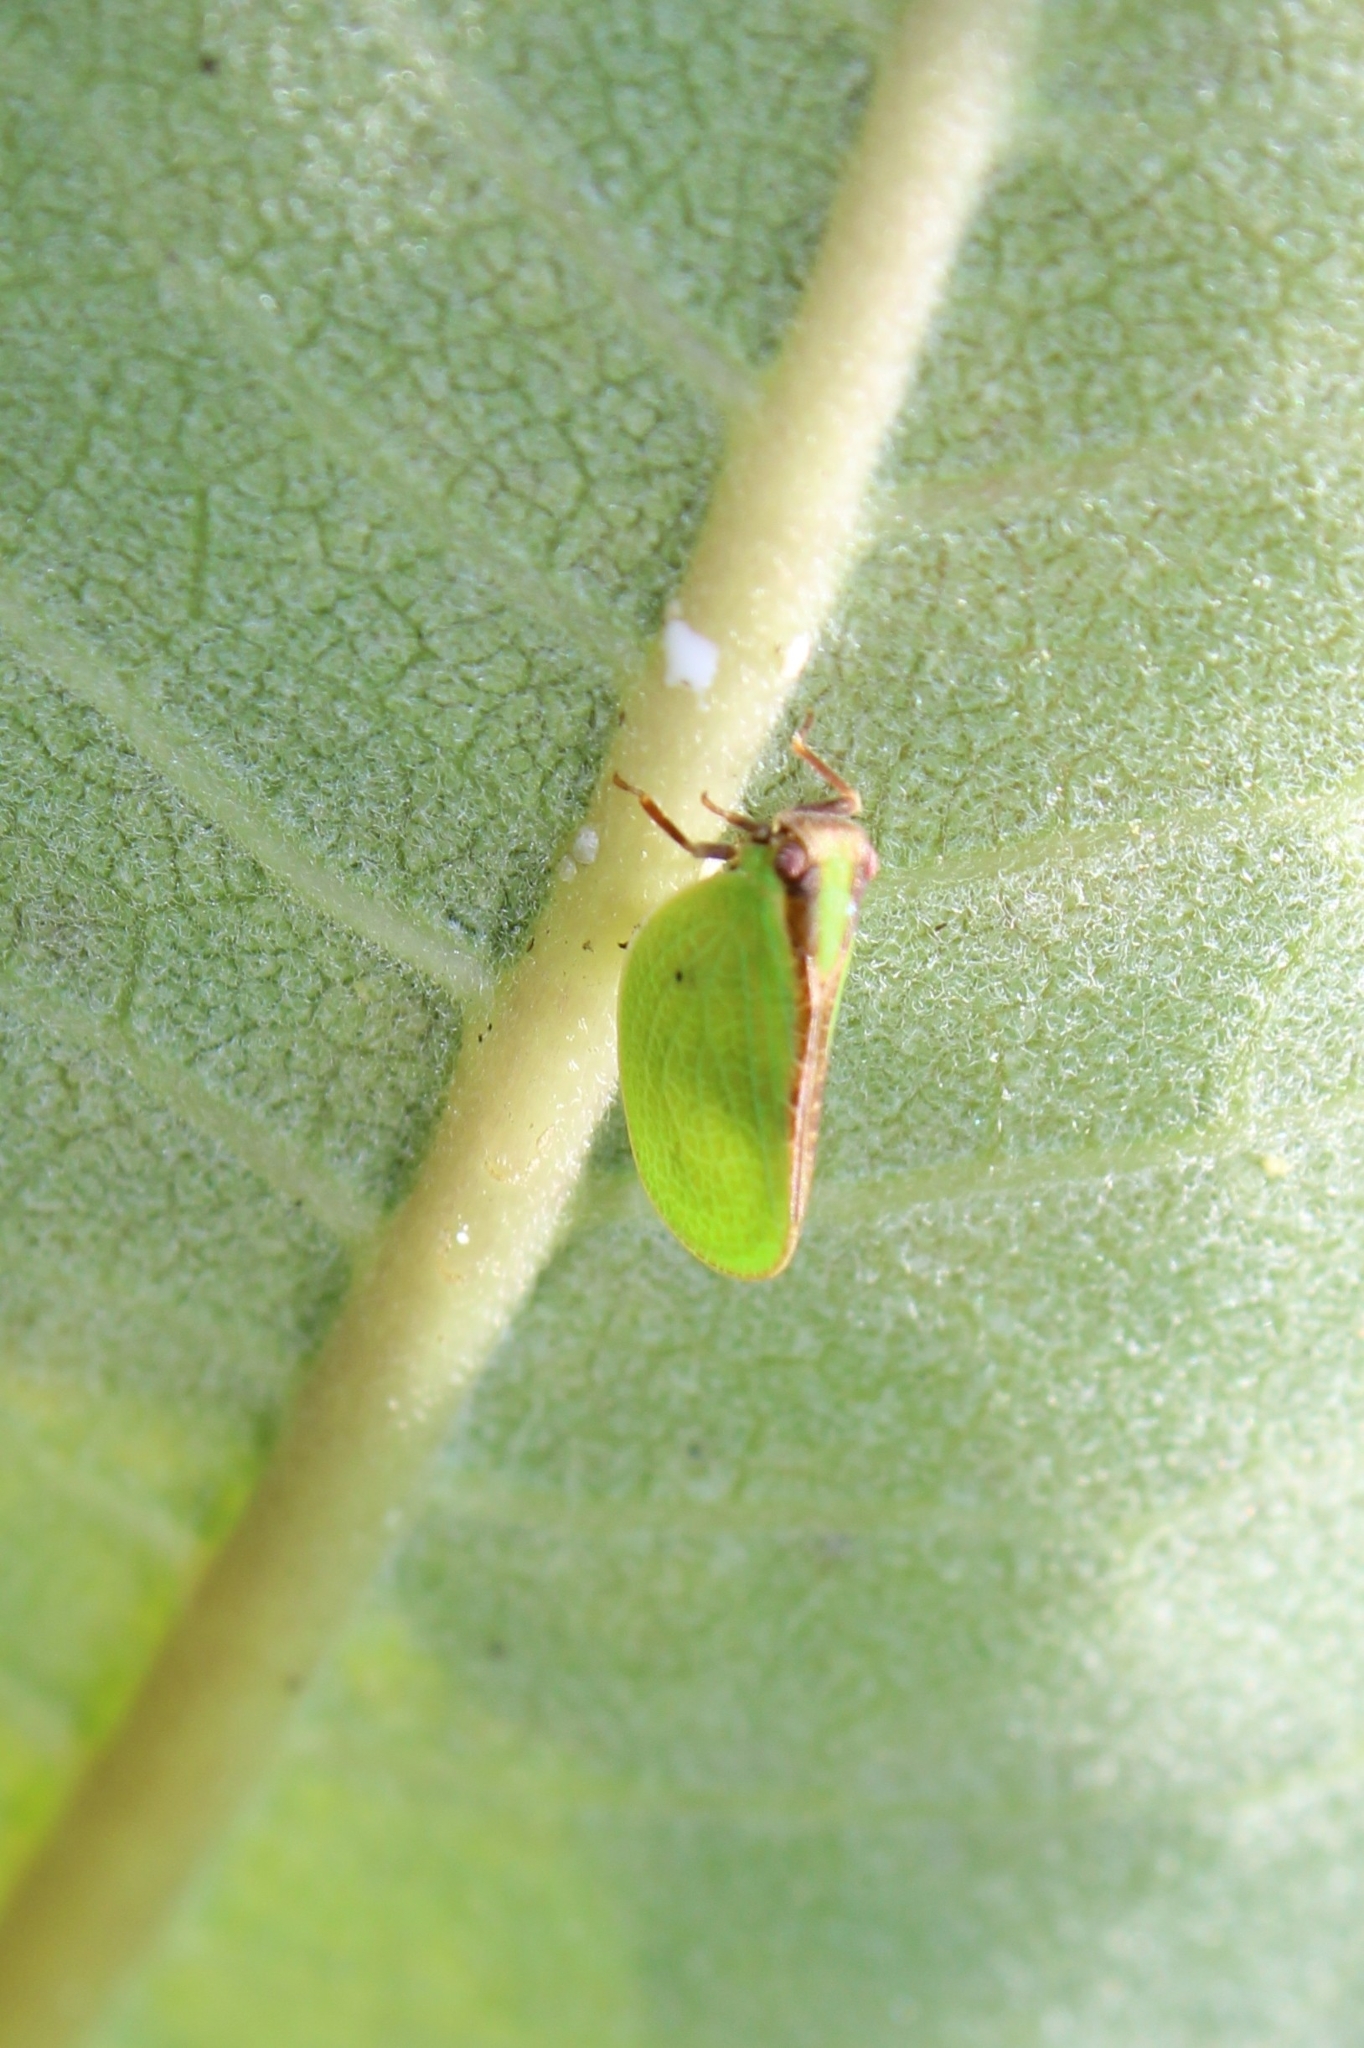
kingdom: Animalia
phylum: Arthropoda
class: Insecta
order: Hemiptera
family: Acanaloniidae
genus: Acanalonia
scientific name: Acanalonia bivittata
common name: Two-striped planthopper
